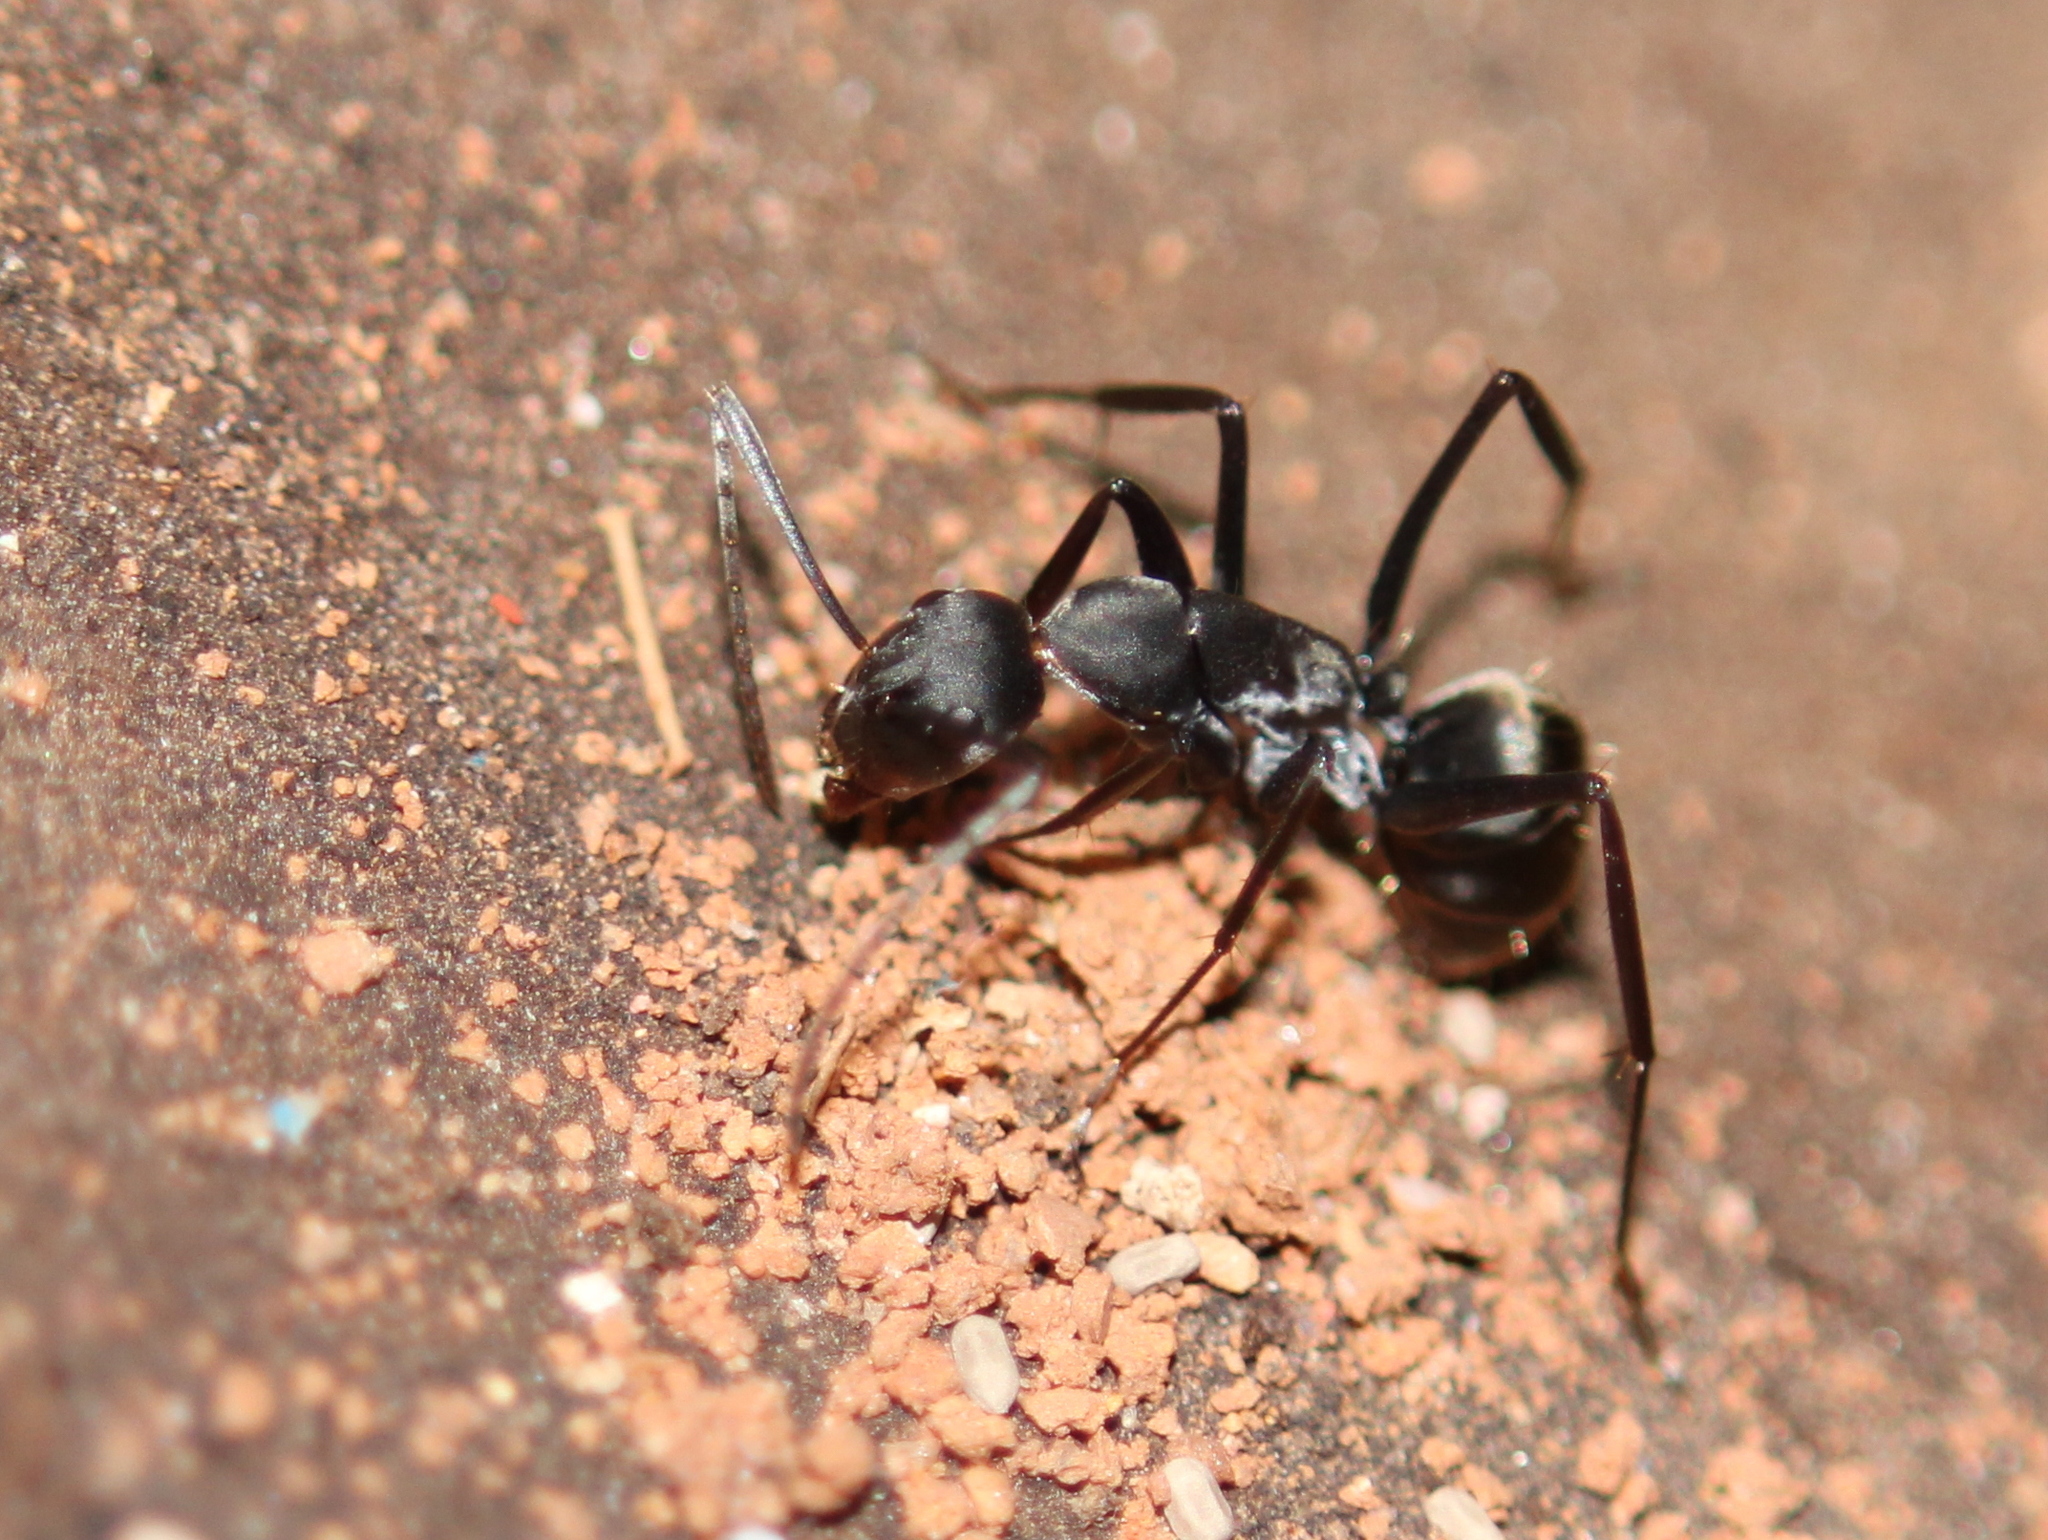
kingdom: Animalia
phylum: Arthropoda
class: Insecta
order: Hymenoptera
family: Formicidae
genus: Camponotus
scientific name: Camponotus rufoglaucus
